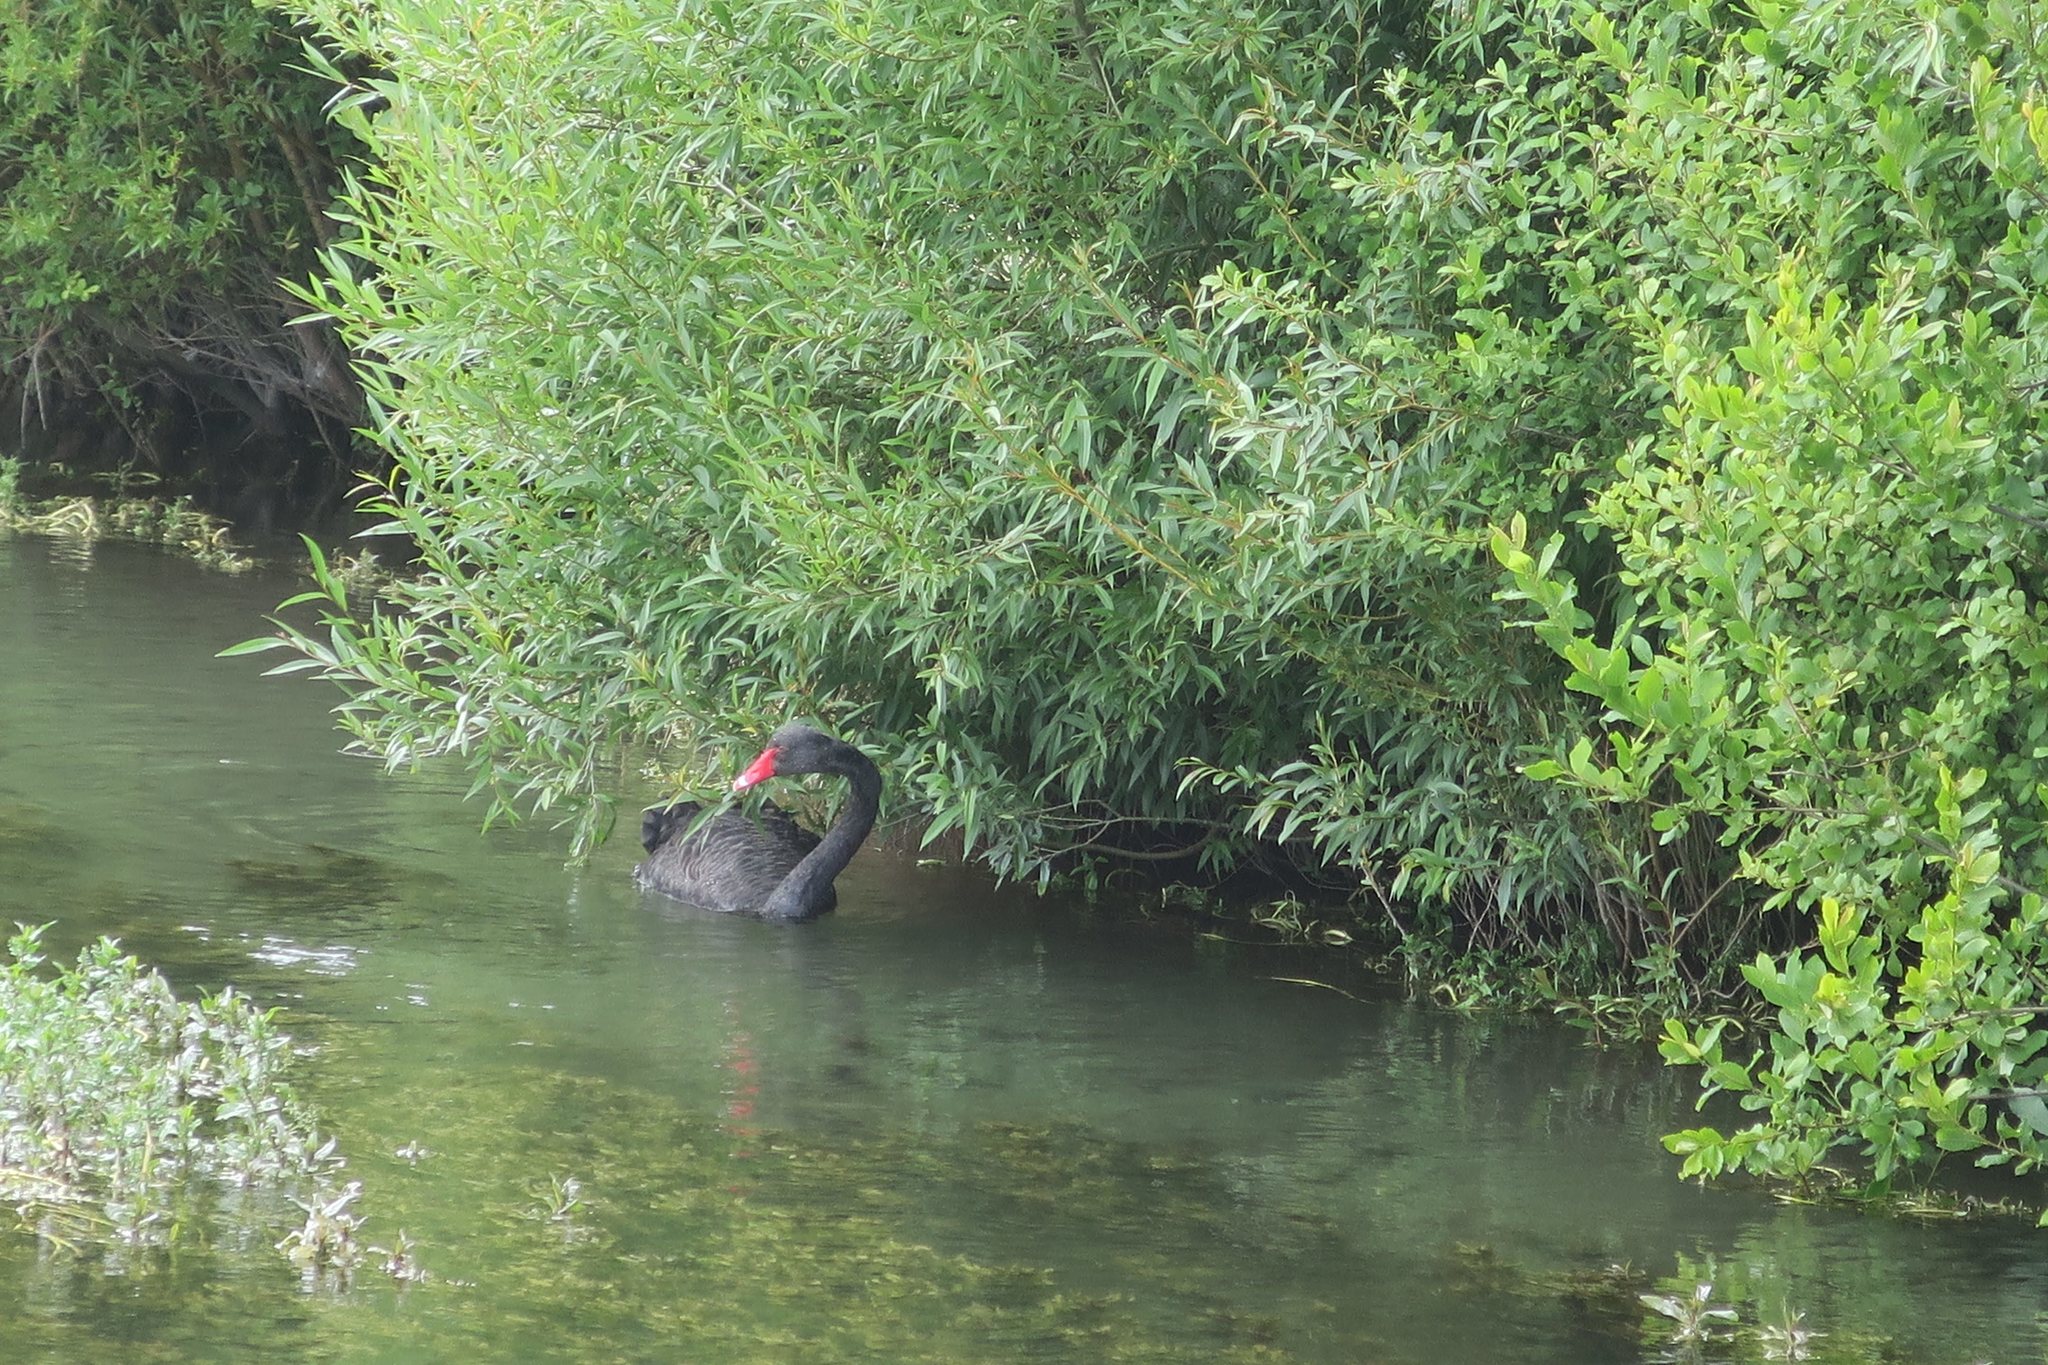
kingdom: Animalia
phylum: Chordata
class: Aves
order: Anseriformes
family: Anatidae
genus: Cygnus
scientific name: Cygnus atratus
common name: Black swan
